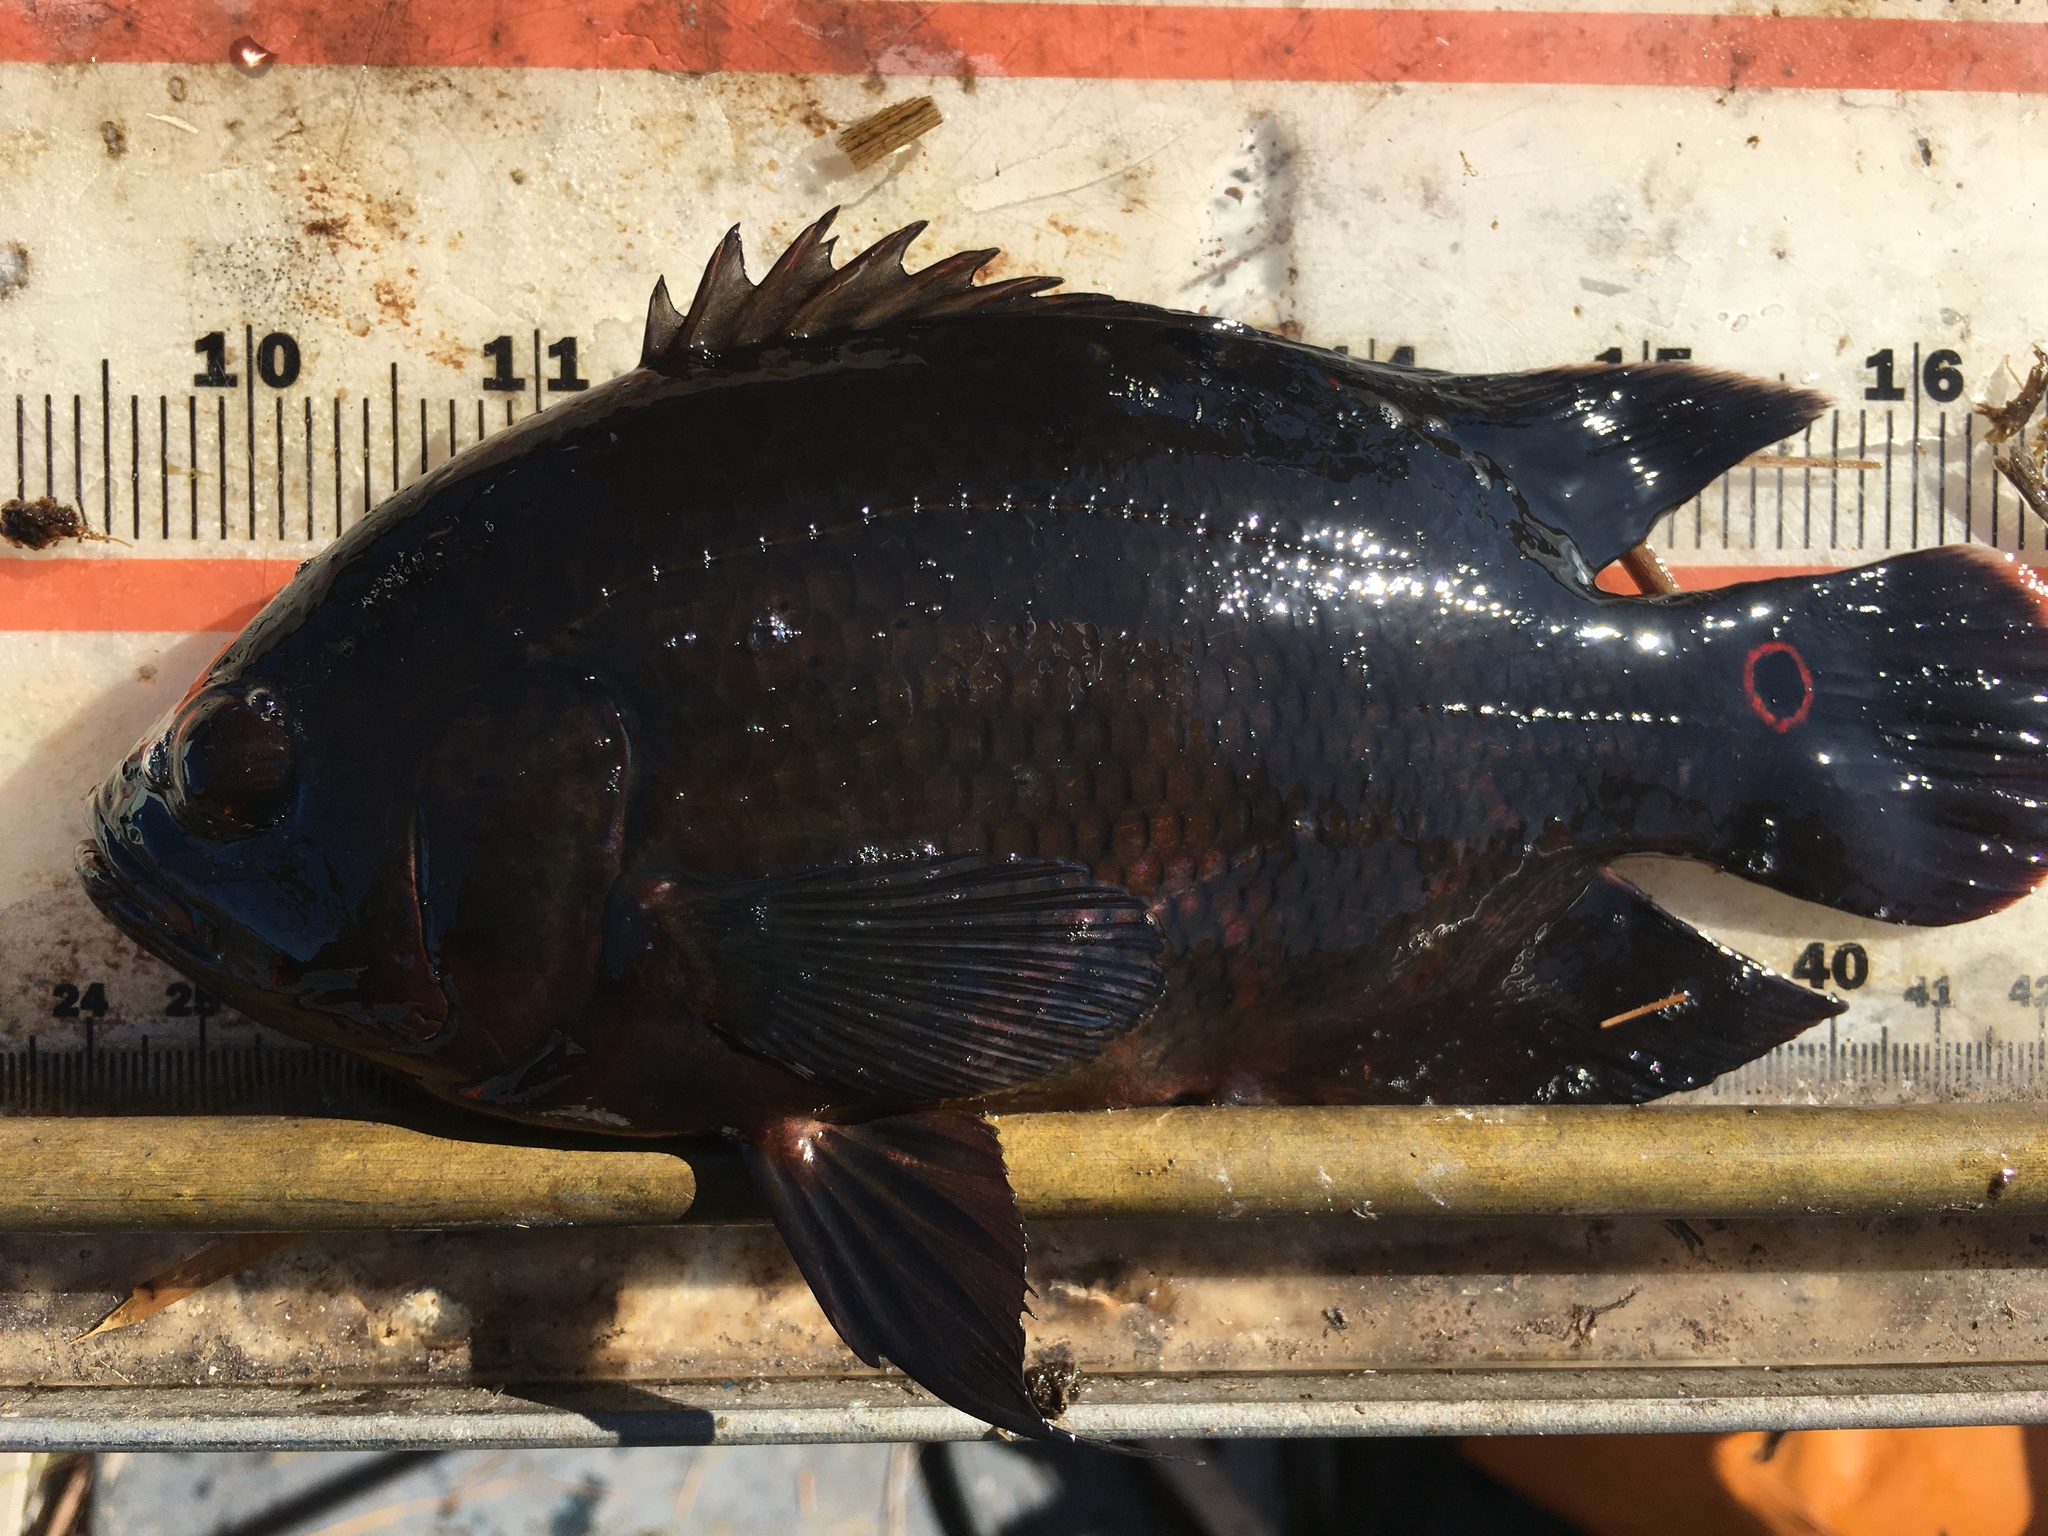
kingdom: Animalia
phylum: Chordata
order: Perciformes
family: Cichlidae
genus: Astronotus
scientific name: Astronotus ocellatus
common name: Oscar
